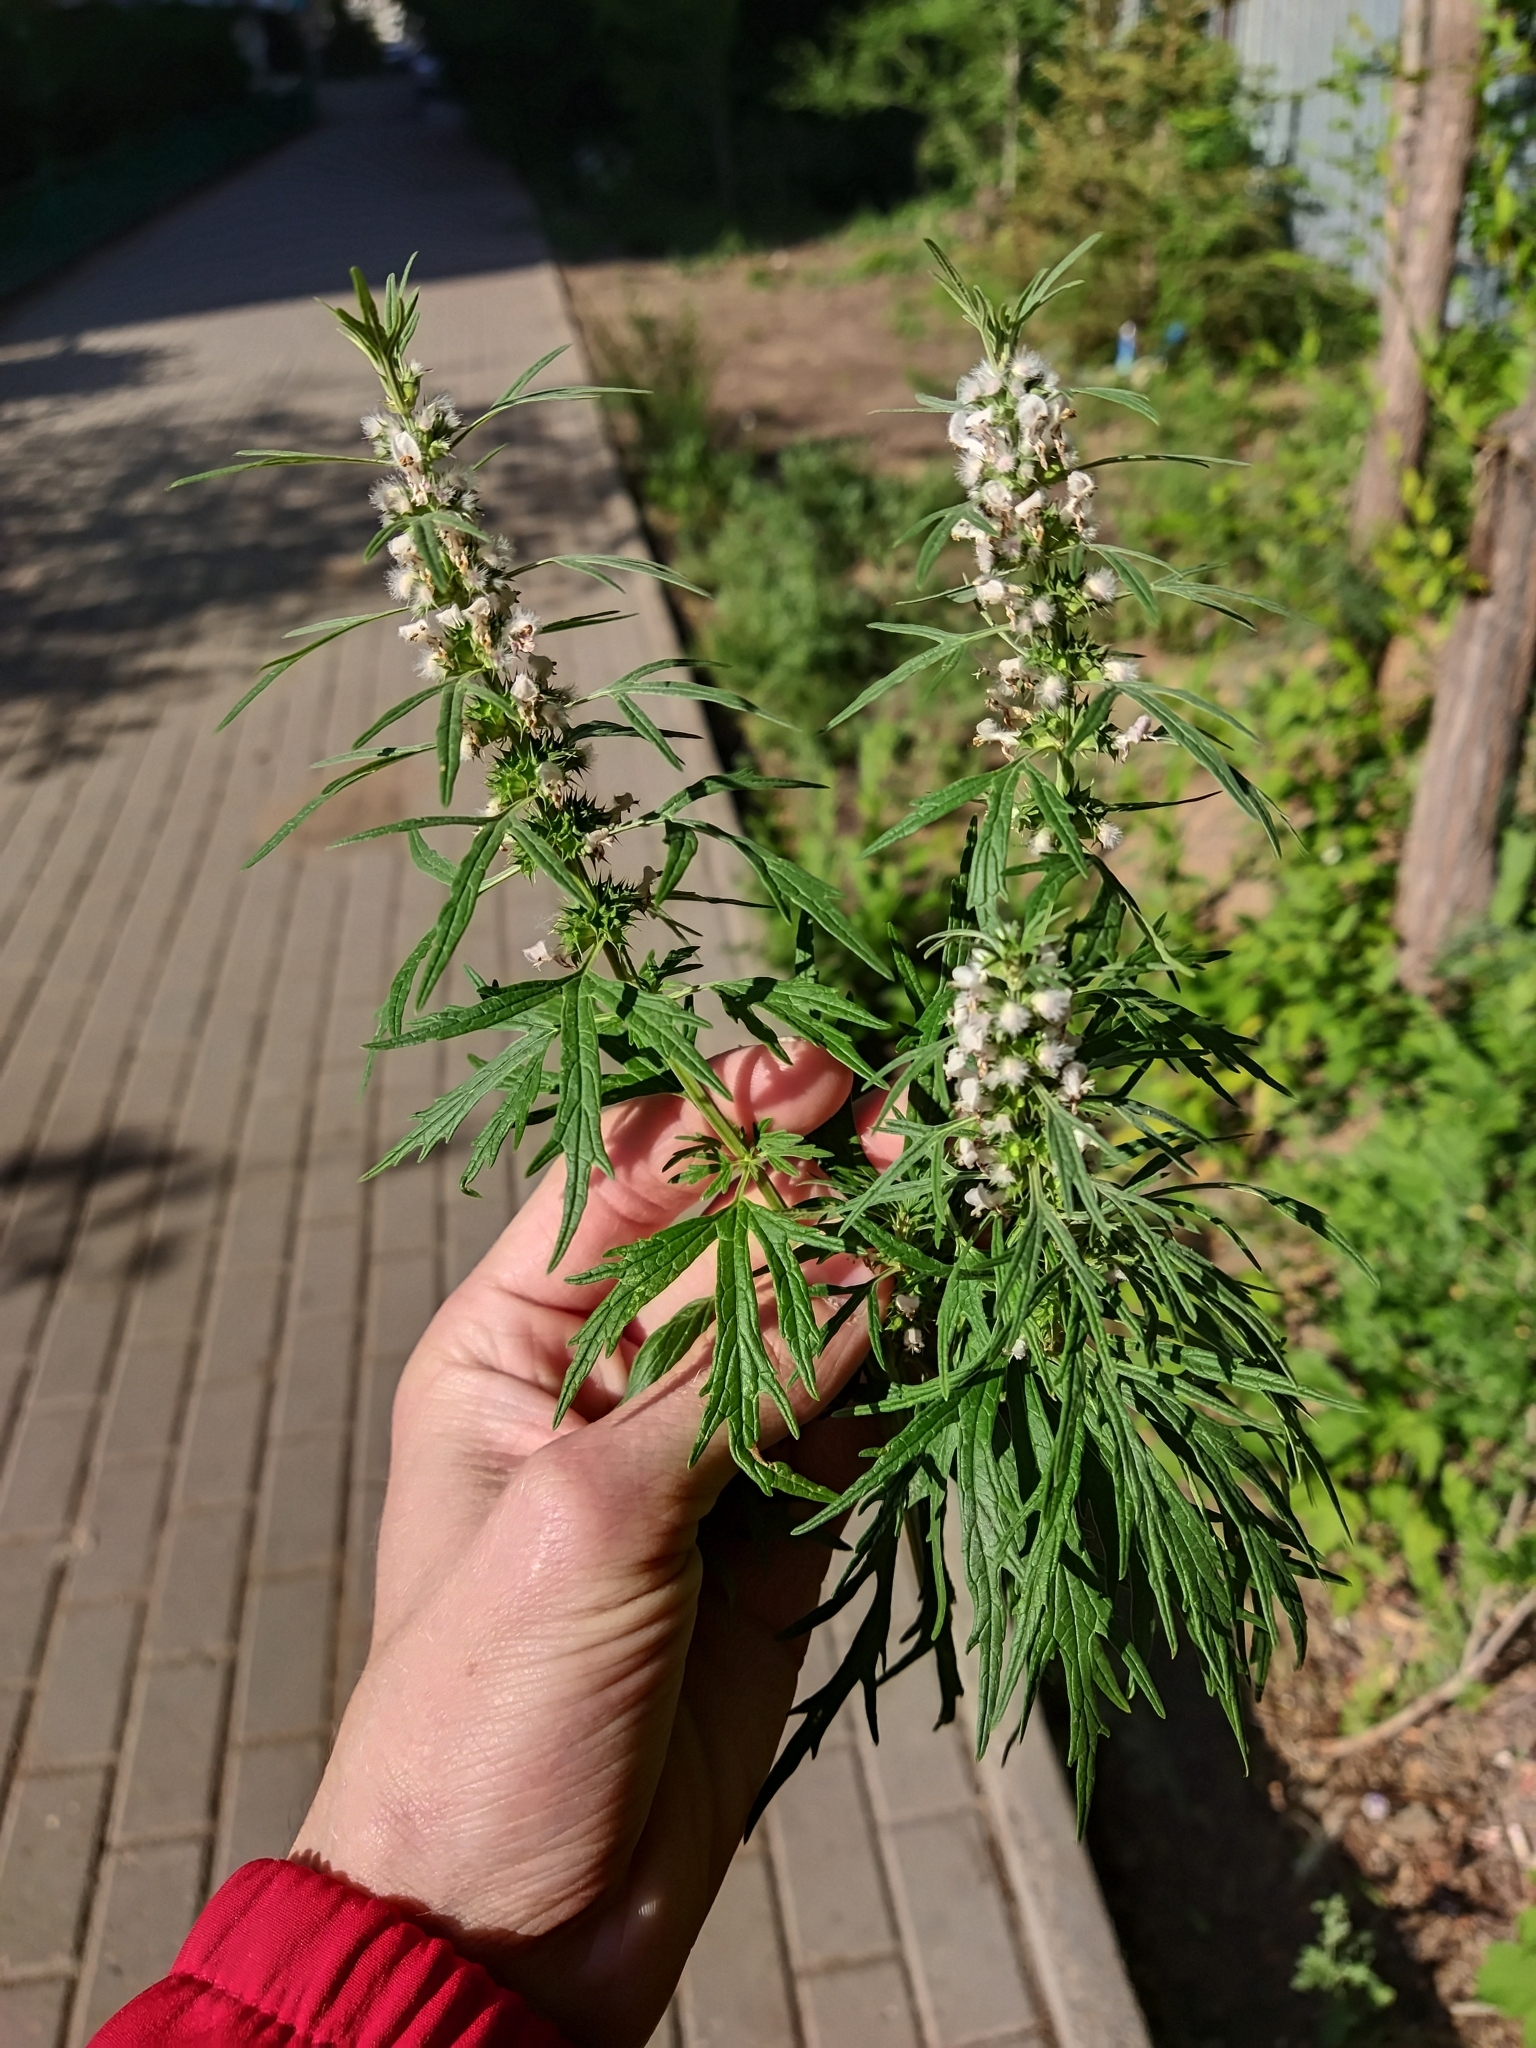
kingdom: Plantae
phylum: Tracheophyta
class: Magnoliopsida
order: Lamiales
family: Lamiaceae
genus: Leonurus
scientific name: Leonurus glaucescens
